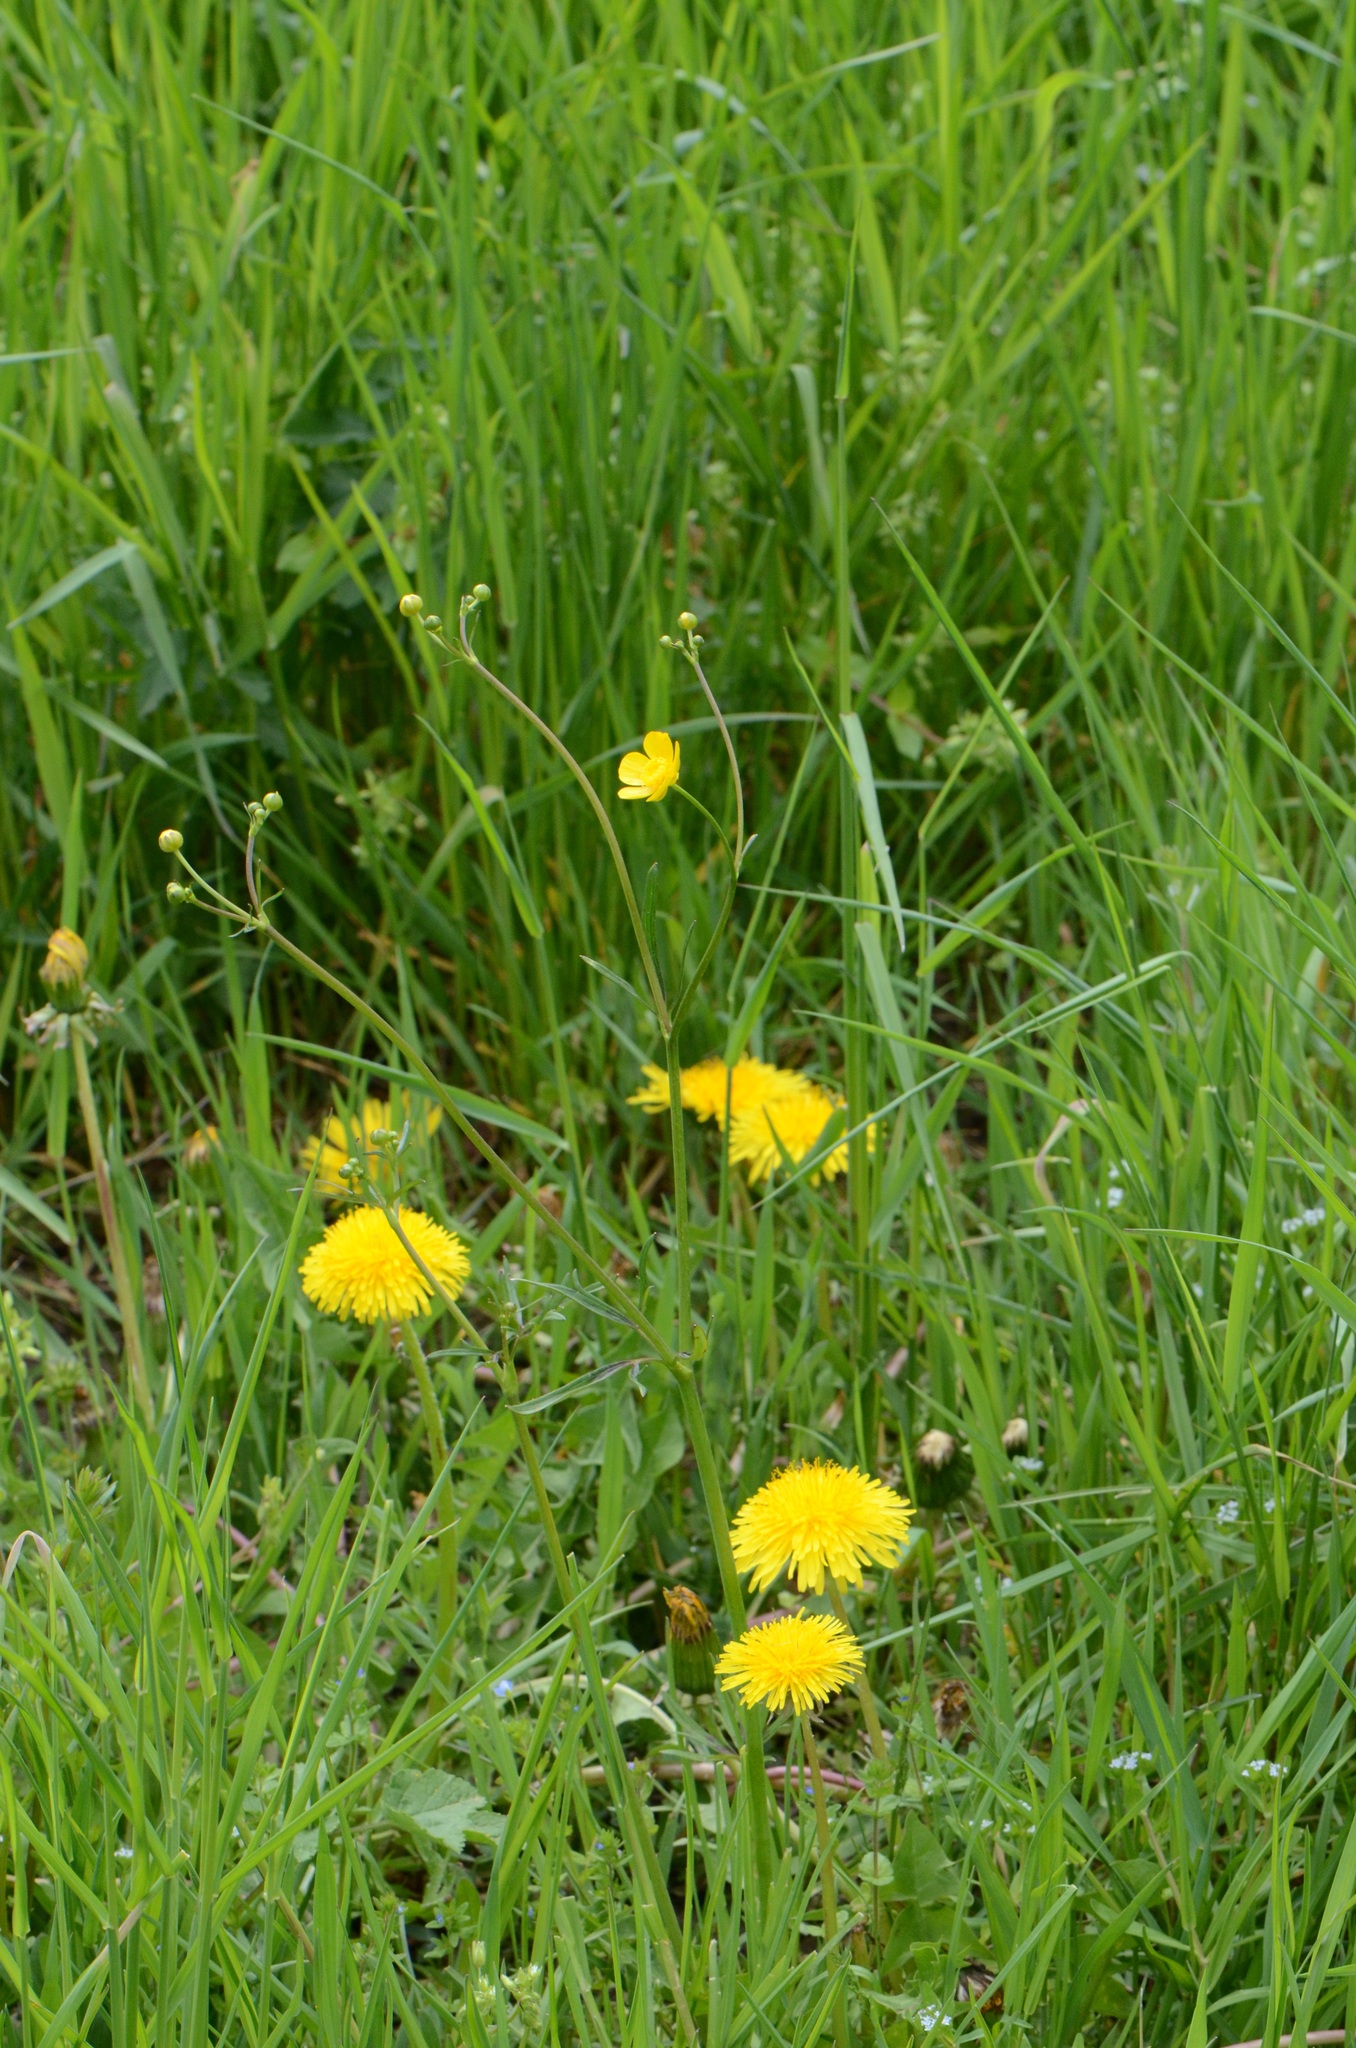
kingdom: Plantae
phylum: Tracheophyta
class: Magnoliopsida
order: Ranunculales
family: Ranunculaceae
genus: Ranunculus
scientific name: Ranunculus acris
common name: Meadow buttercup
